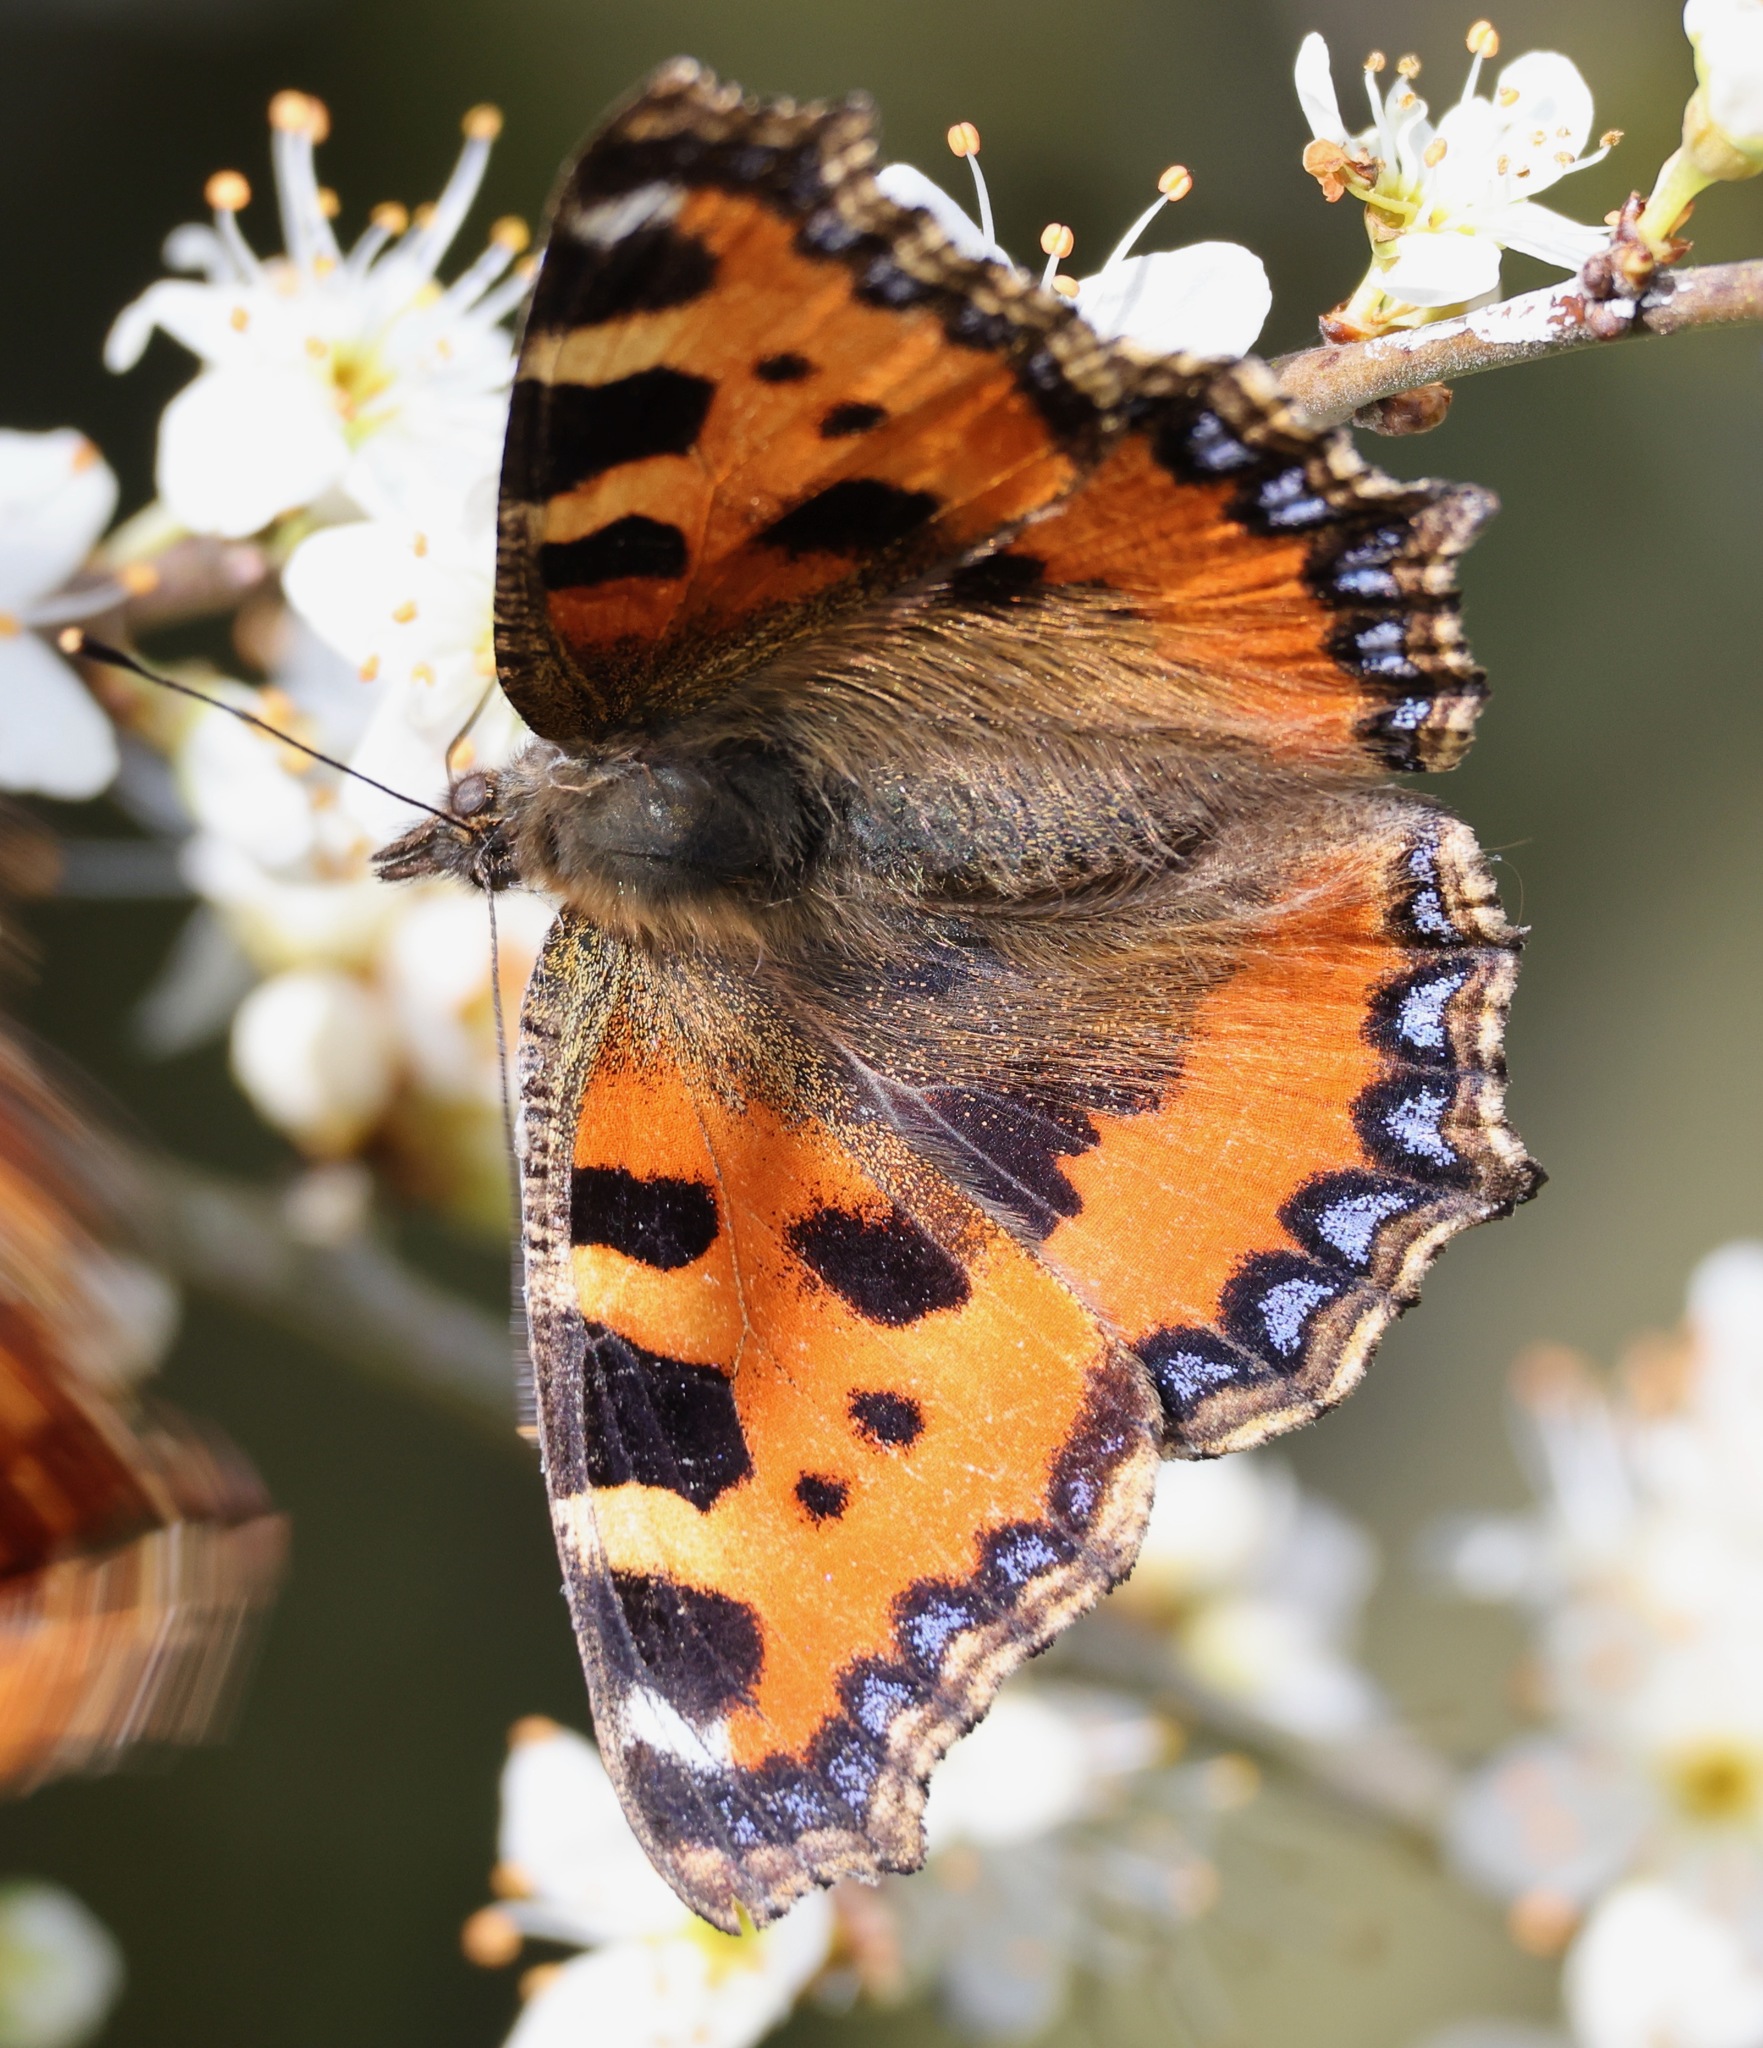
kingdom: Animalia
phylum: Arthropoda
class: Insecta
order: Lepidoptera
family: Nymphalidae
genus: Aglais
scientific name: Aglais urticae
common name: Small tortoiseshell
